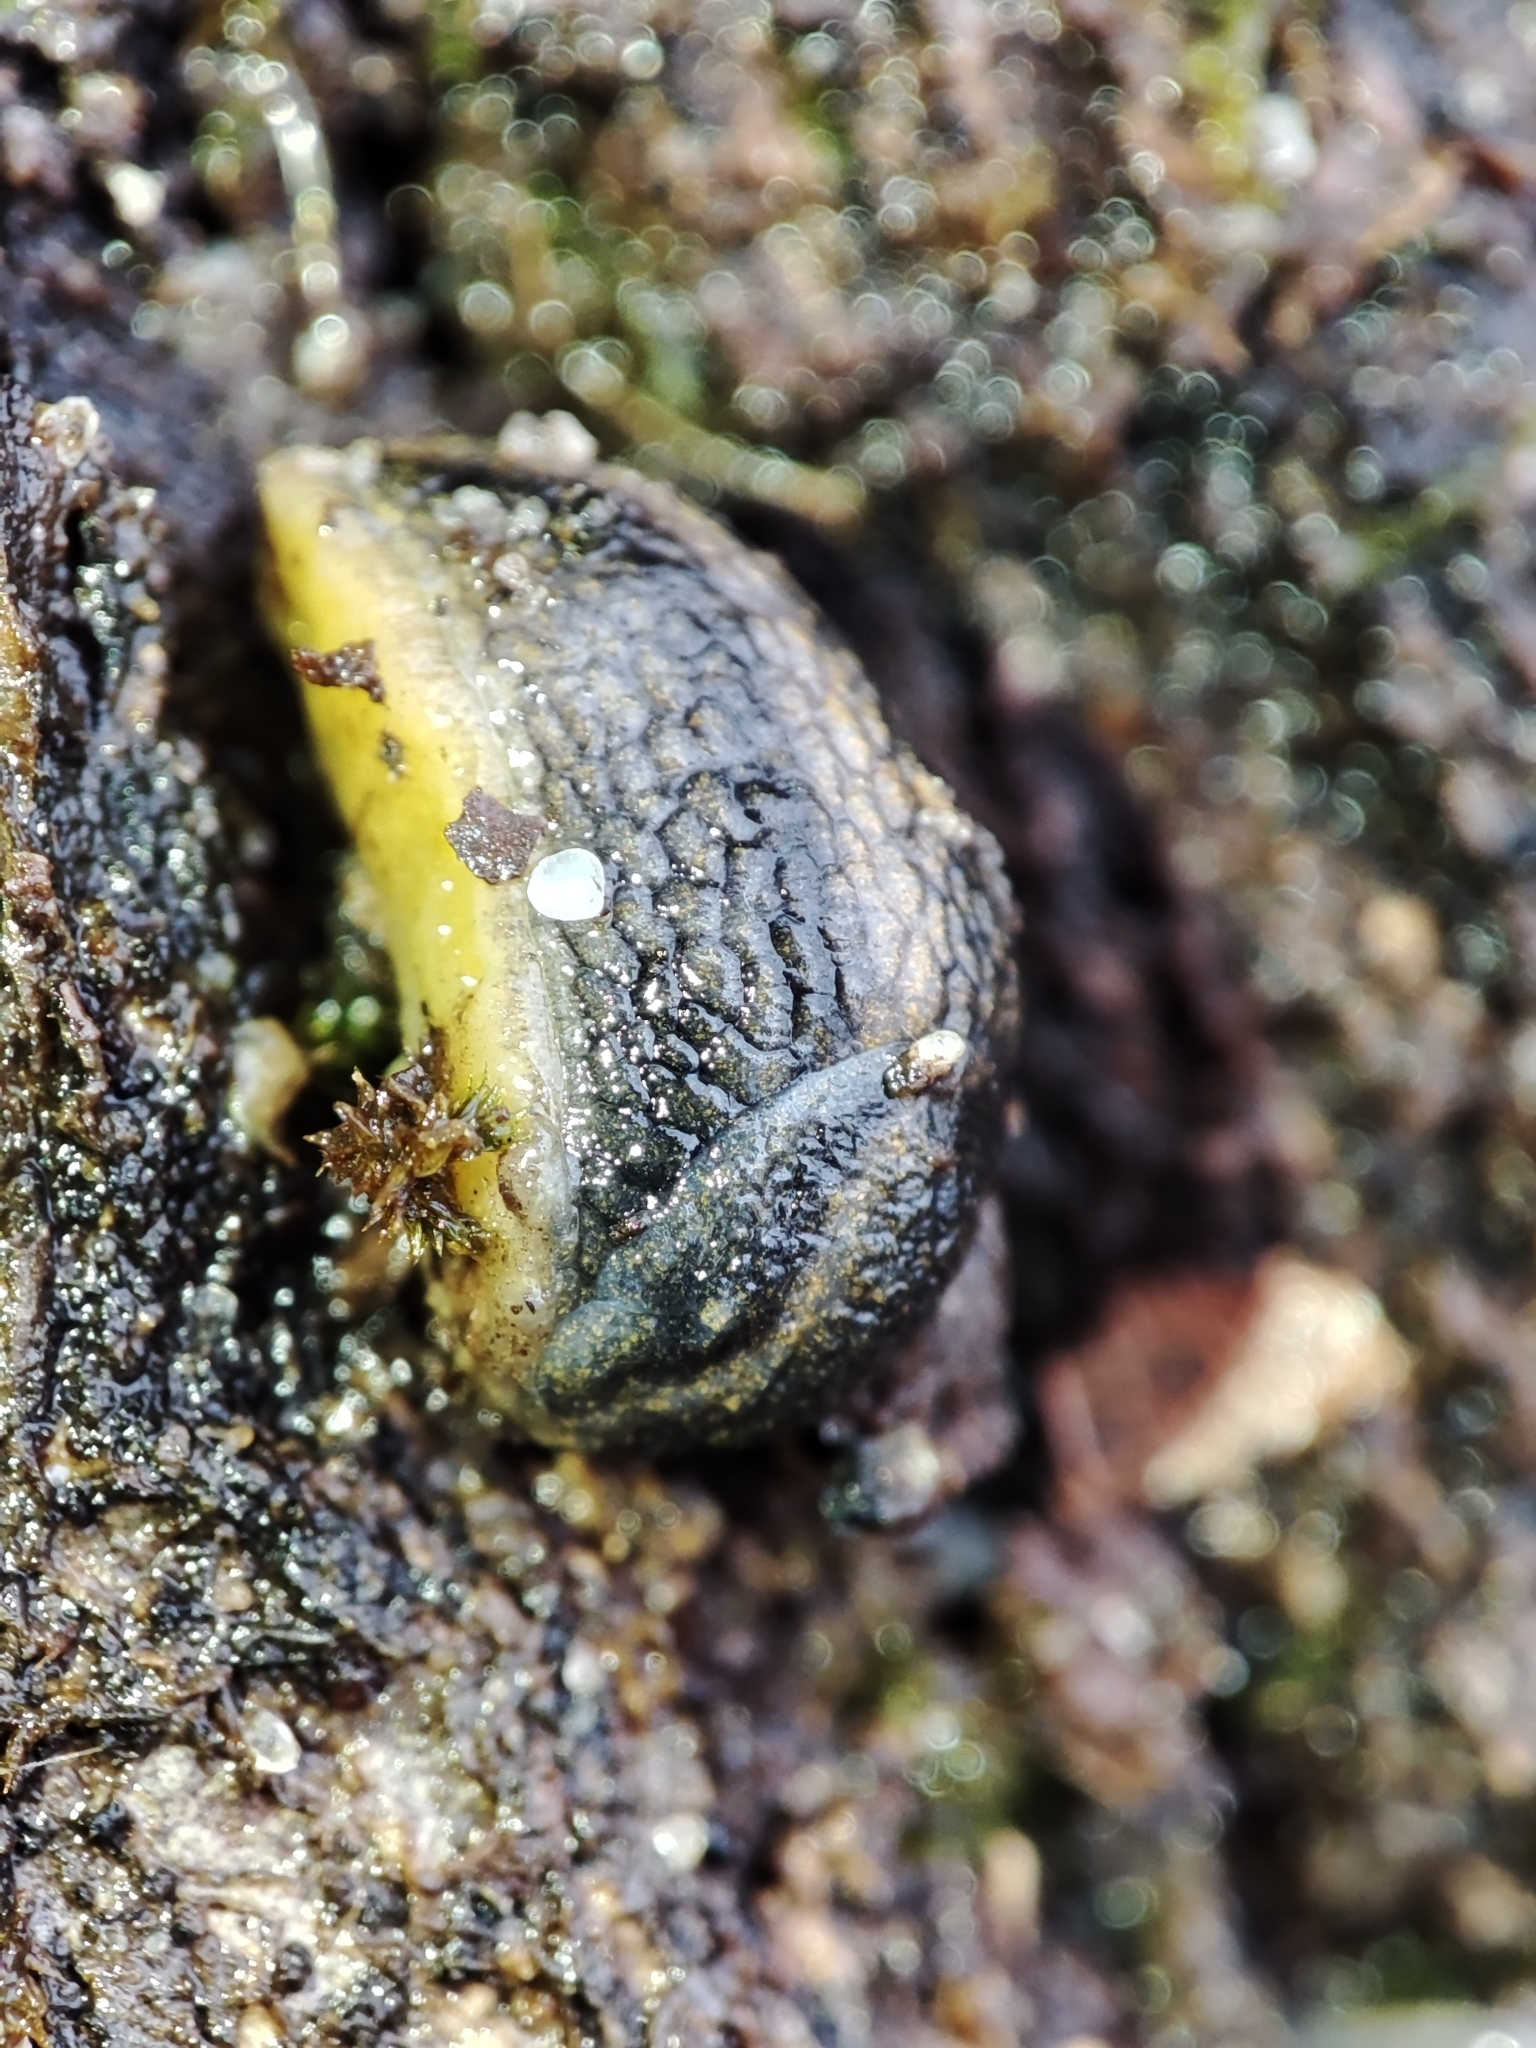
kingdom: Animalia
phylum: Mollusca
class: Gastropoda
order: Stylommatophora
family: Arionidae
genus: Arion
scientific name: Arion distinctus
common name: Darkface arion
